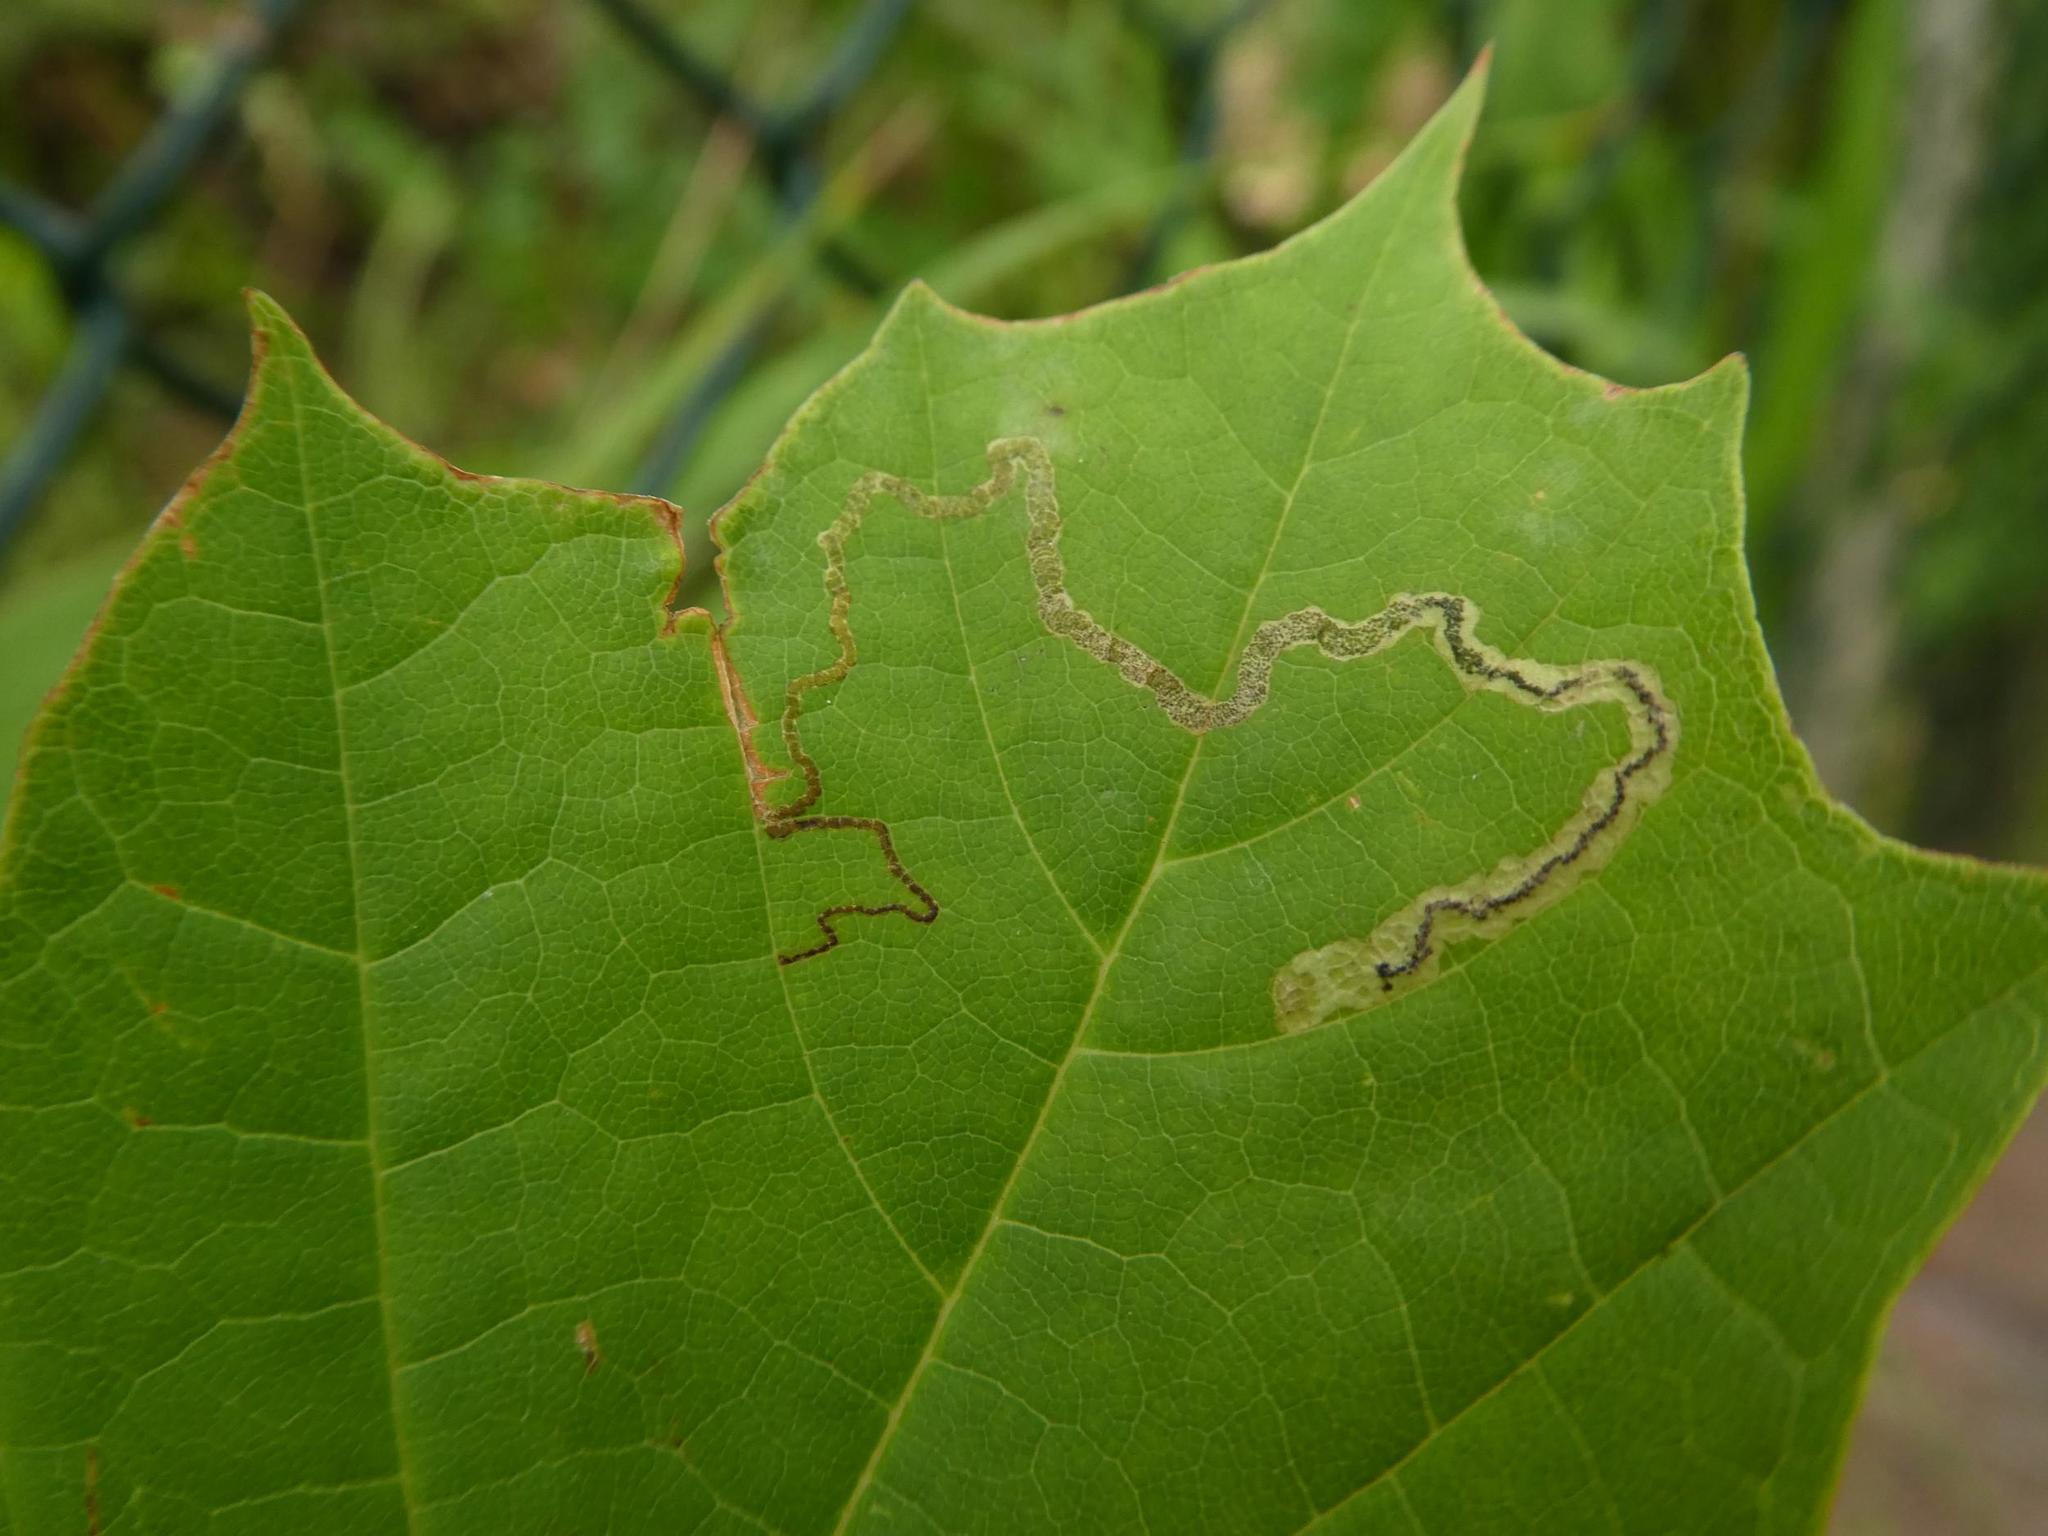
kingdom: Animalia
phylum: Arthropoda
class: Insecta
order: Lepidoptera
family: Nepticulidae
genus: Stigmella
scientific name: Stigmella aceris
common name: Scarce maple pigmy
